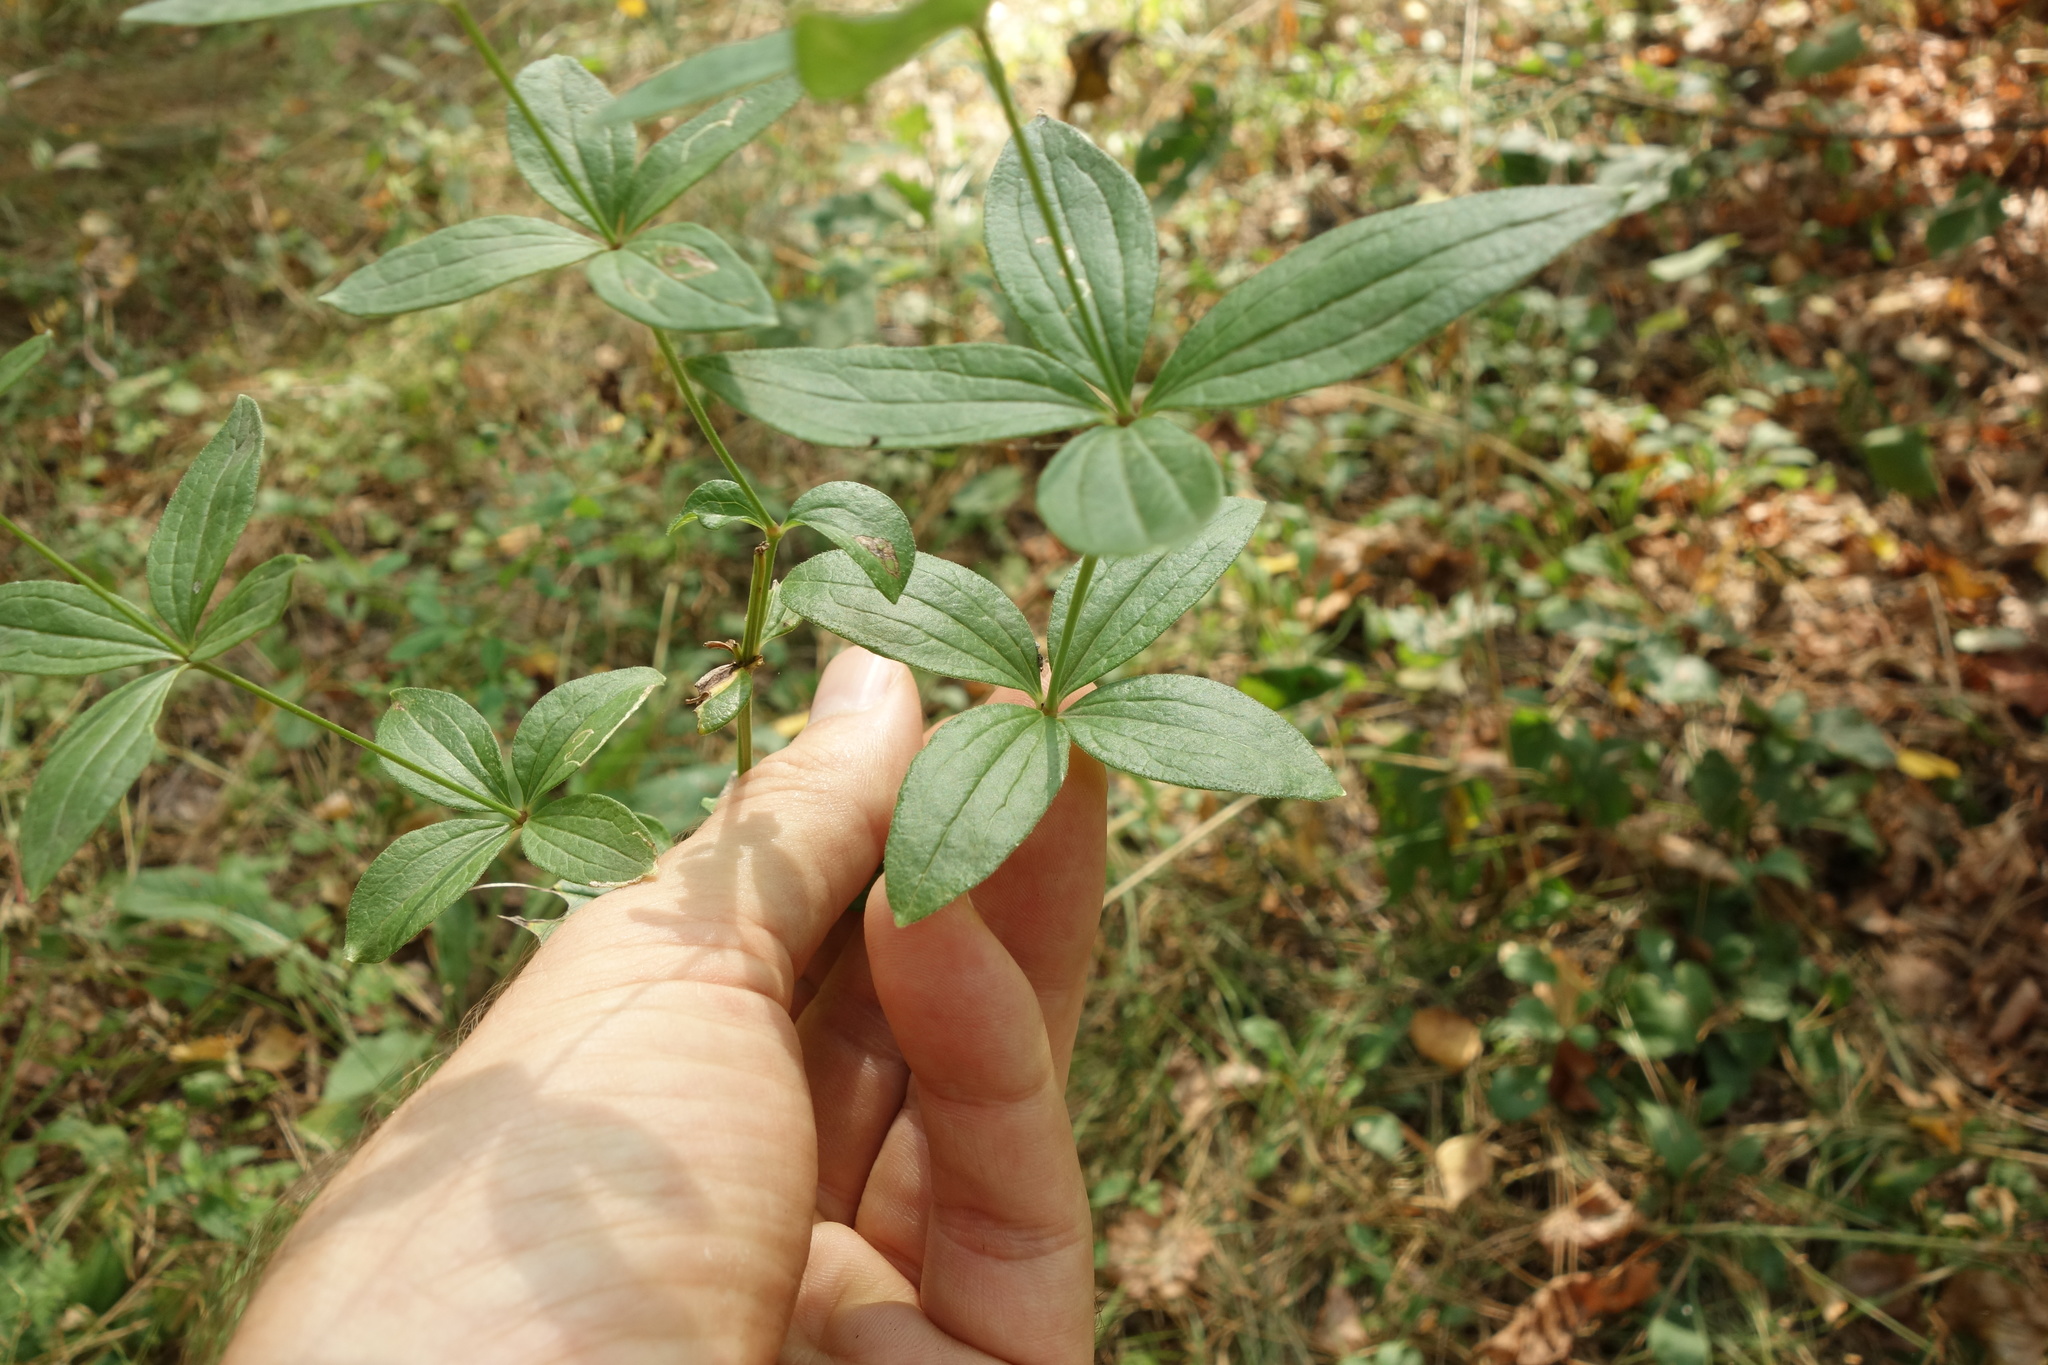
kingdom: Plantae
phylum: Tracheophyta
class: Magnoliopsida
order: Gentianales
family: Rubiaceae
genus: Galium
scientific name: Galium rubioides
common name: European bedstraw
